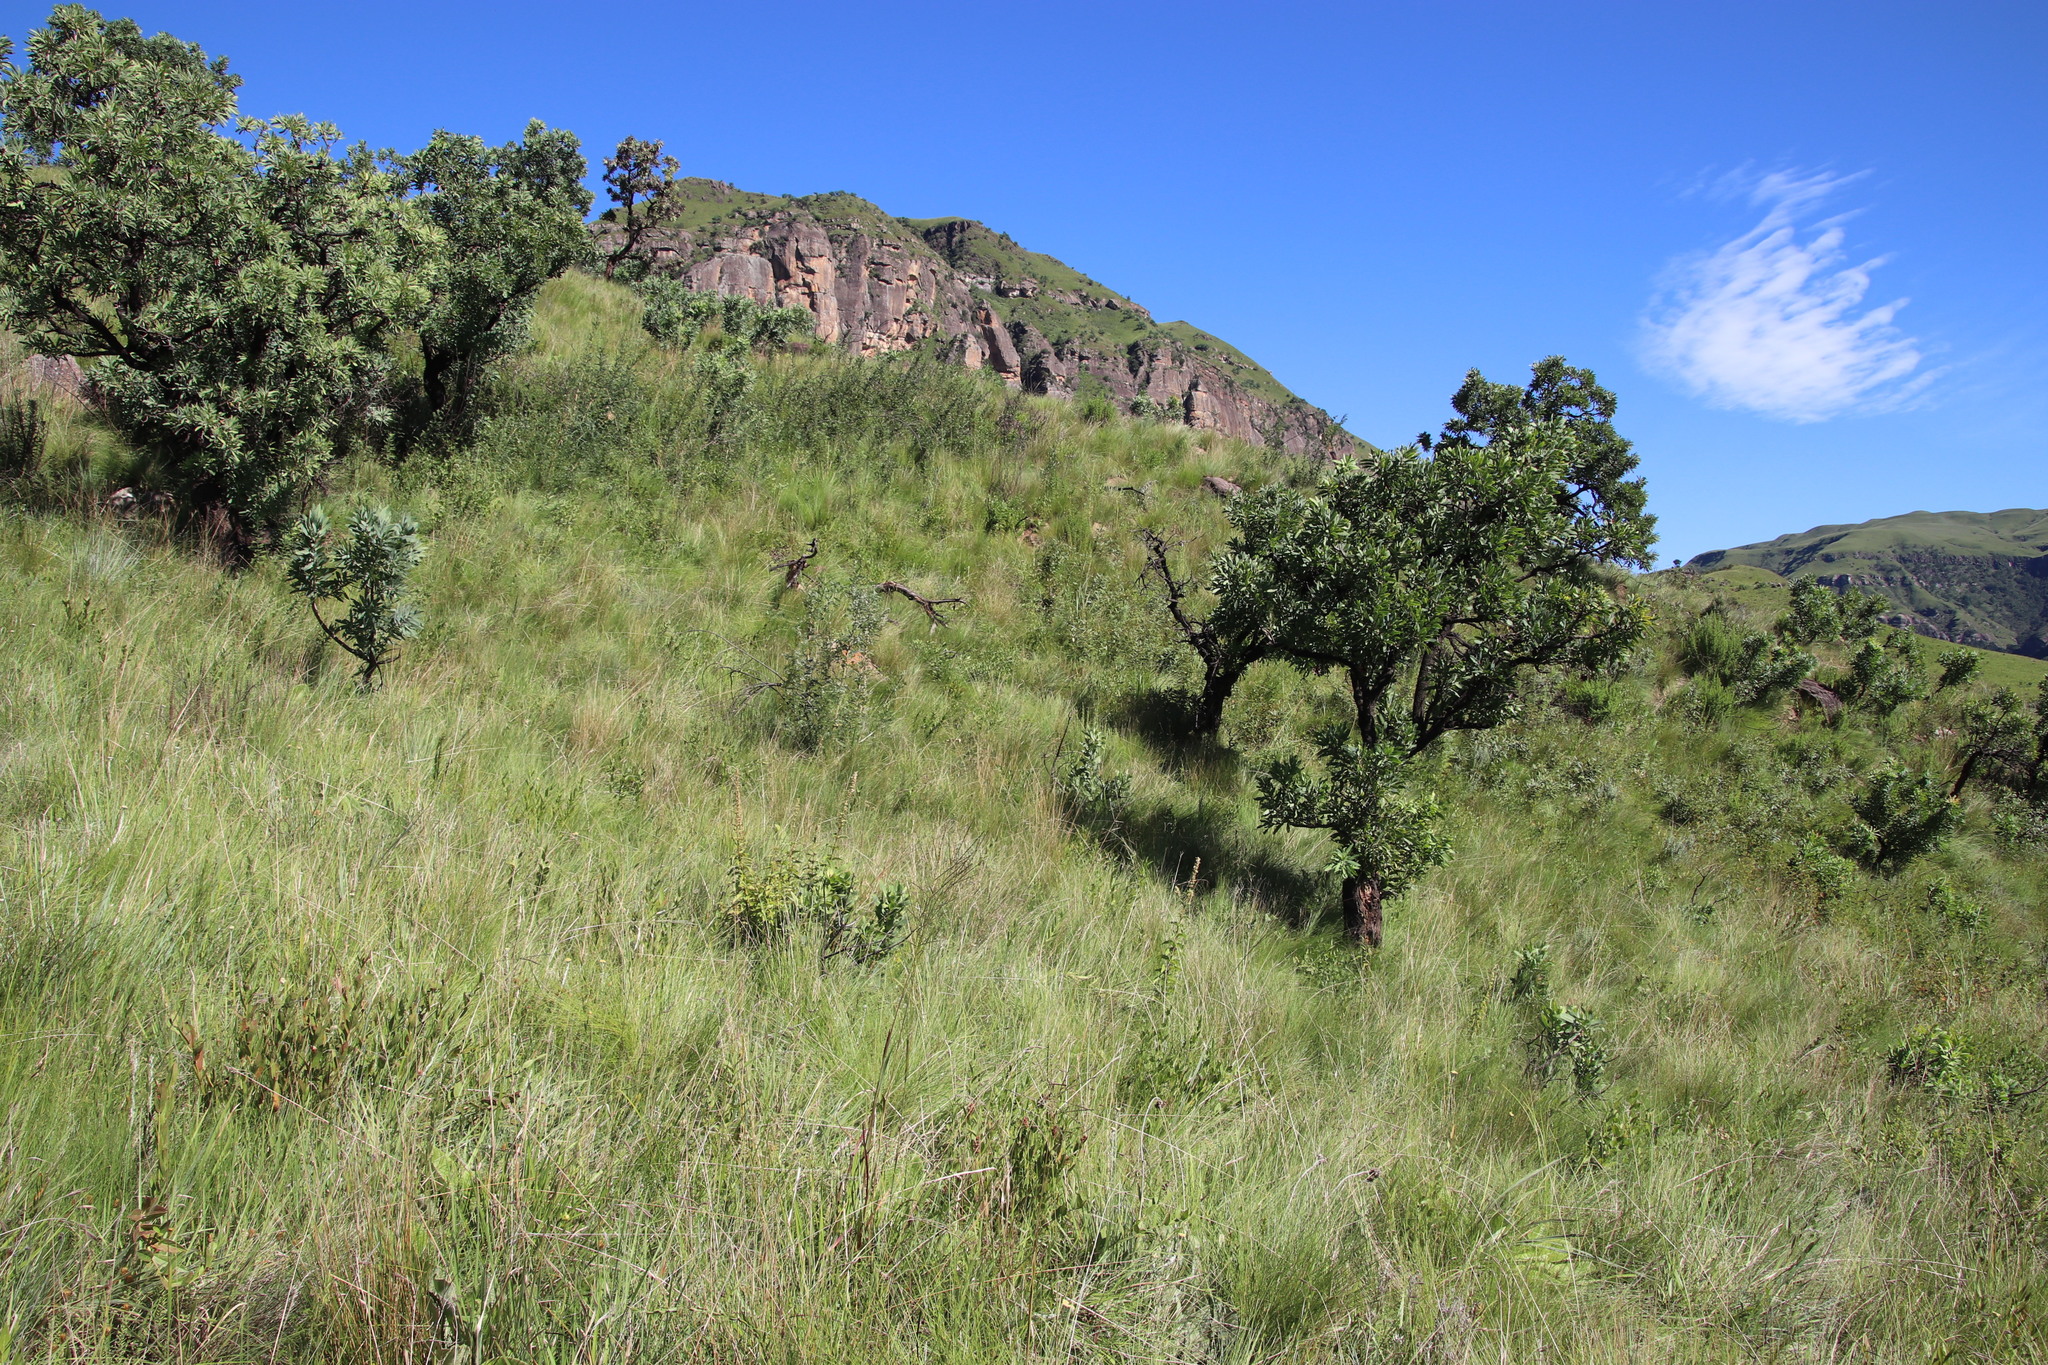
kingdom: Plantae
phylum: Tracheophyta
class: Magnoliopsida
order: Proteales
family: Proteaceae
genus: Protea
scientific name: Protea caffra
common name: Common sugarbush
